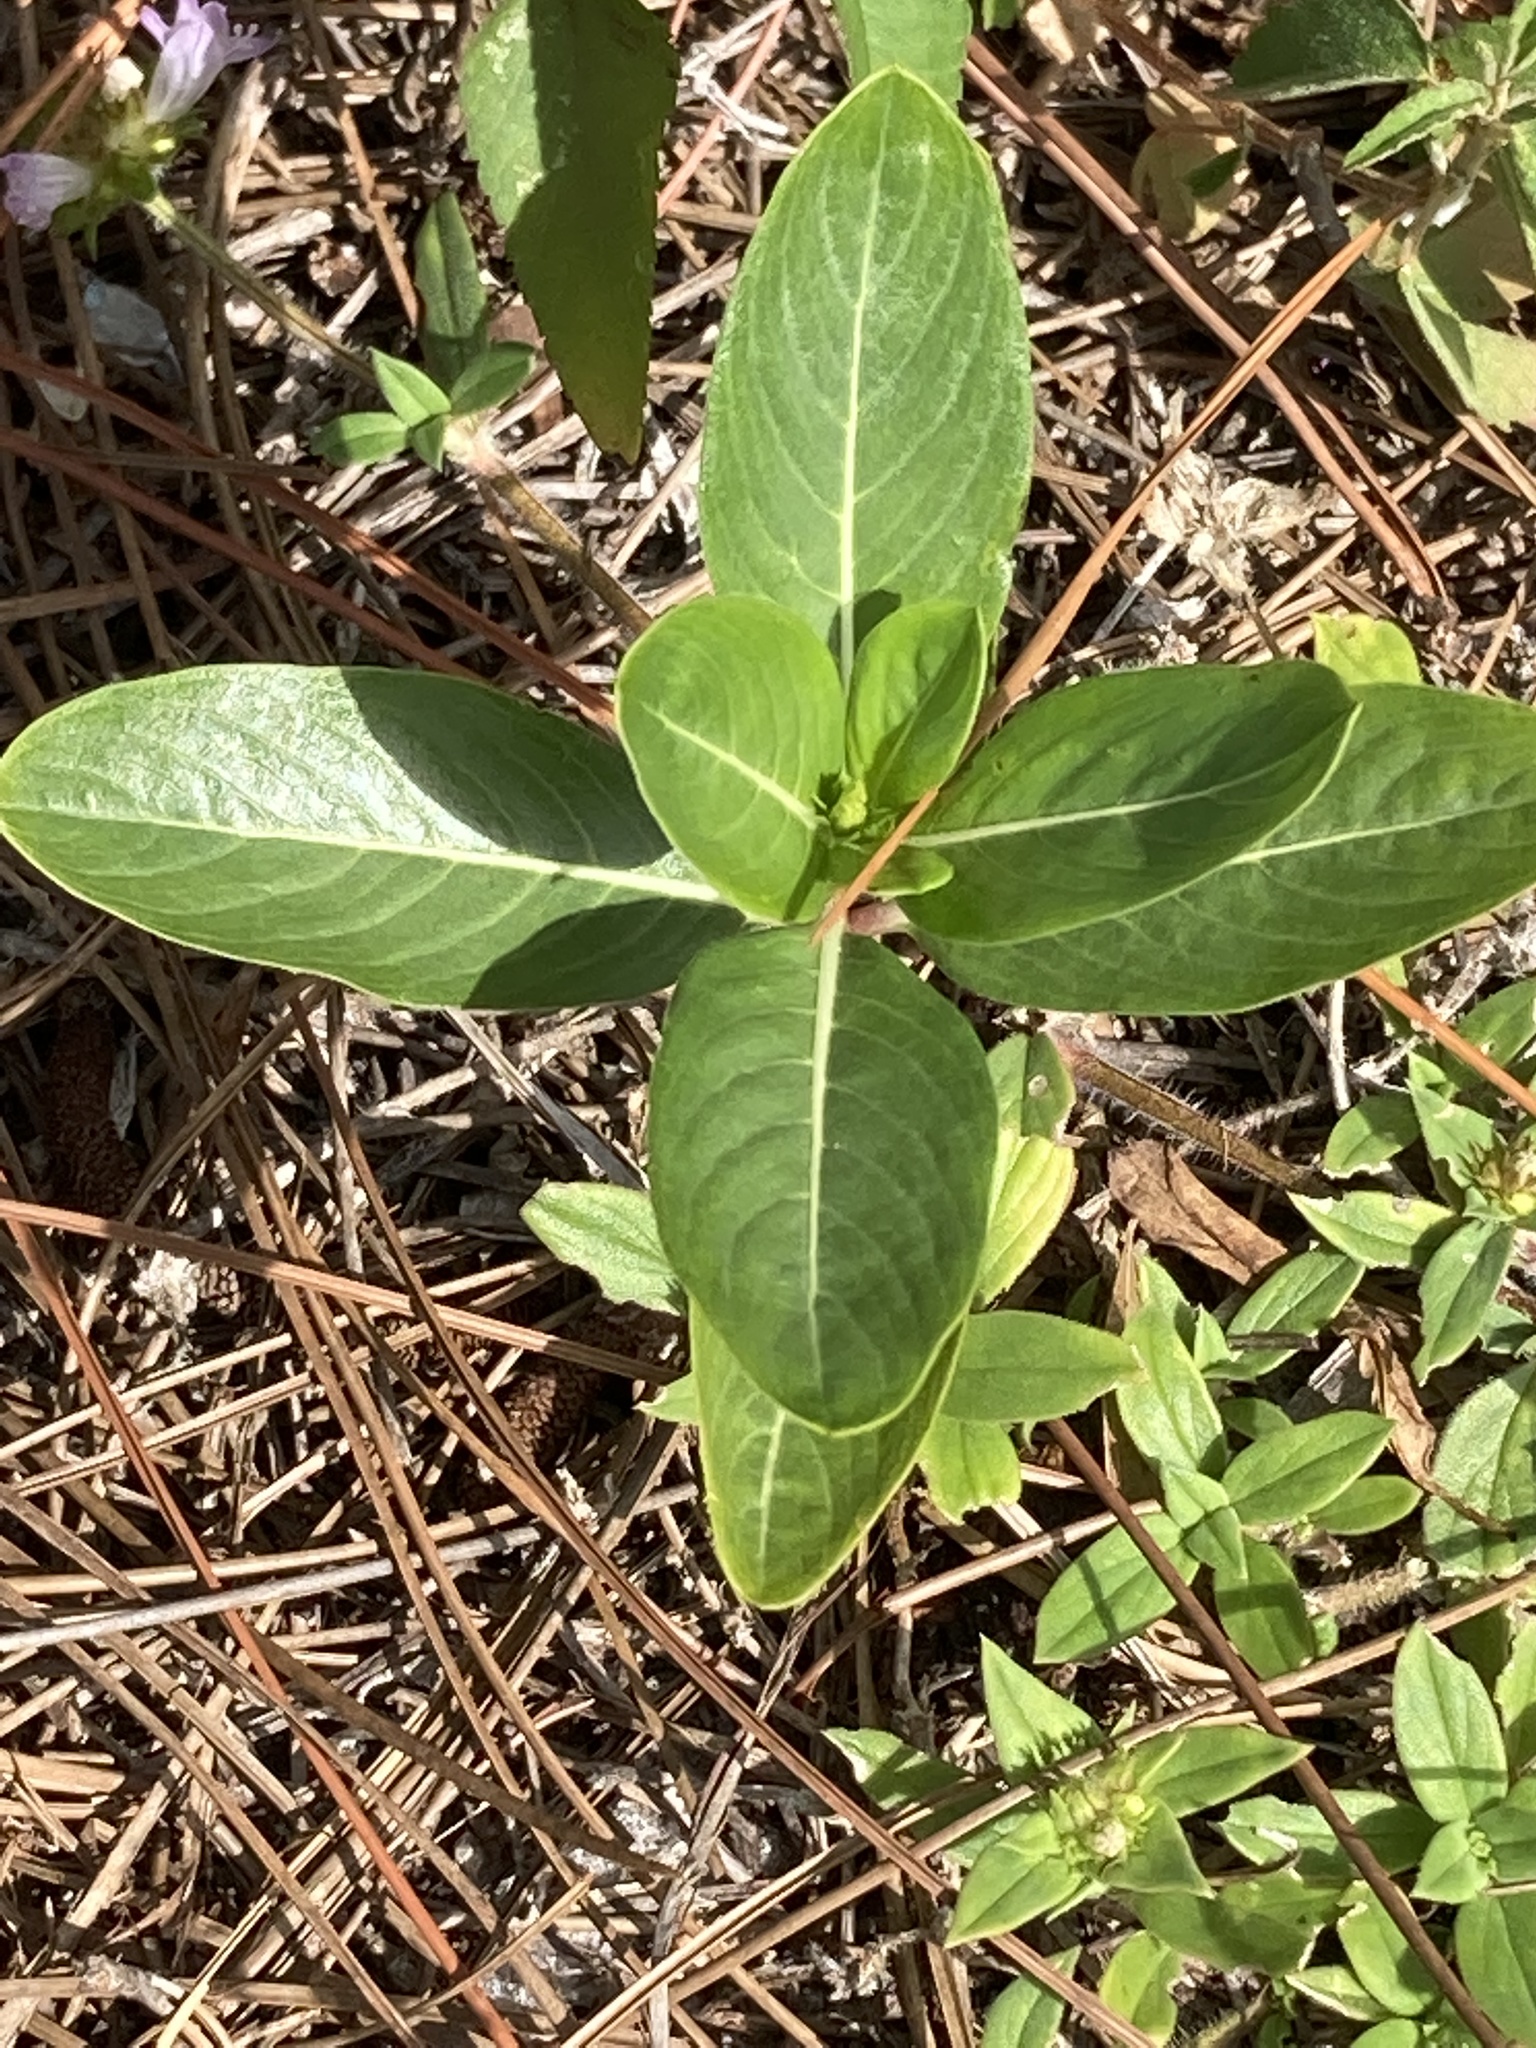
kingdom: Plantae
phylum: Tracheophyta
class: Magnoliopsida
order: Gentianales
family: Apocynaceae
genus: Catharanthus
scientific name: Catharanthus roseus
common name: Madagascar periwinkle
